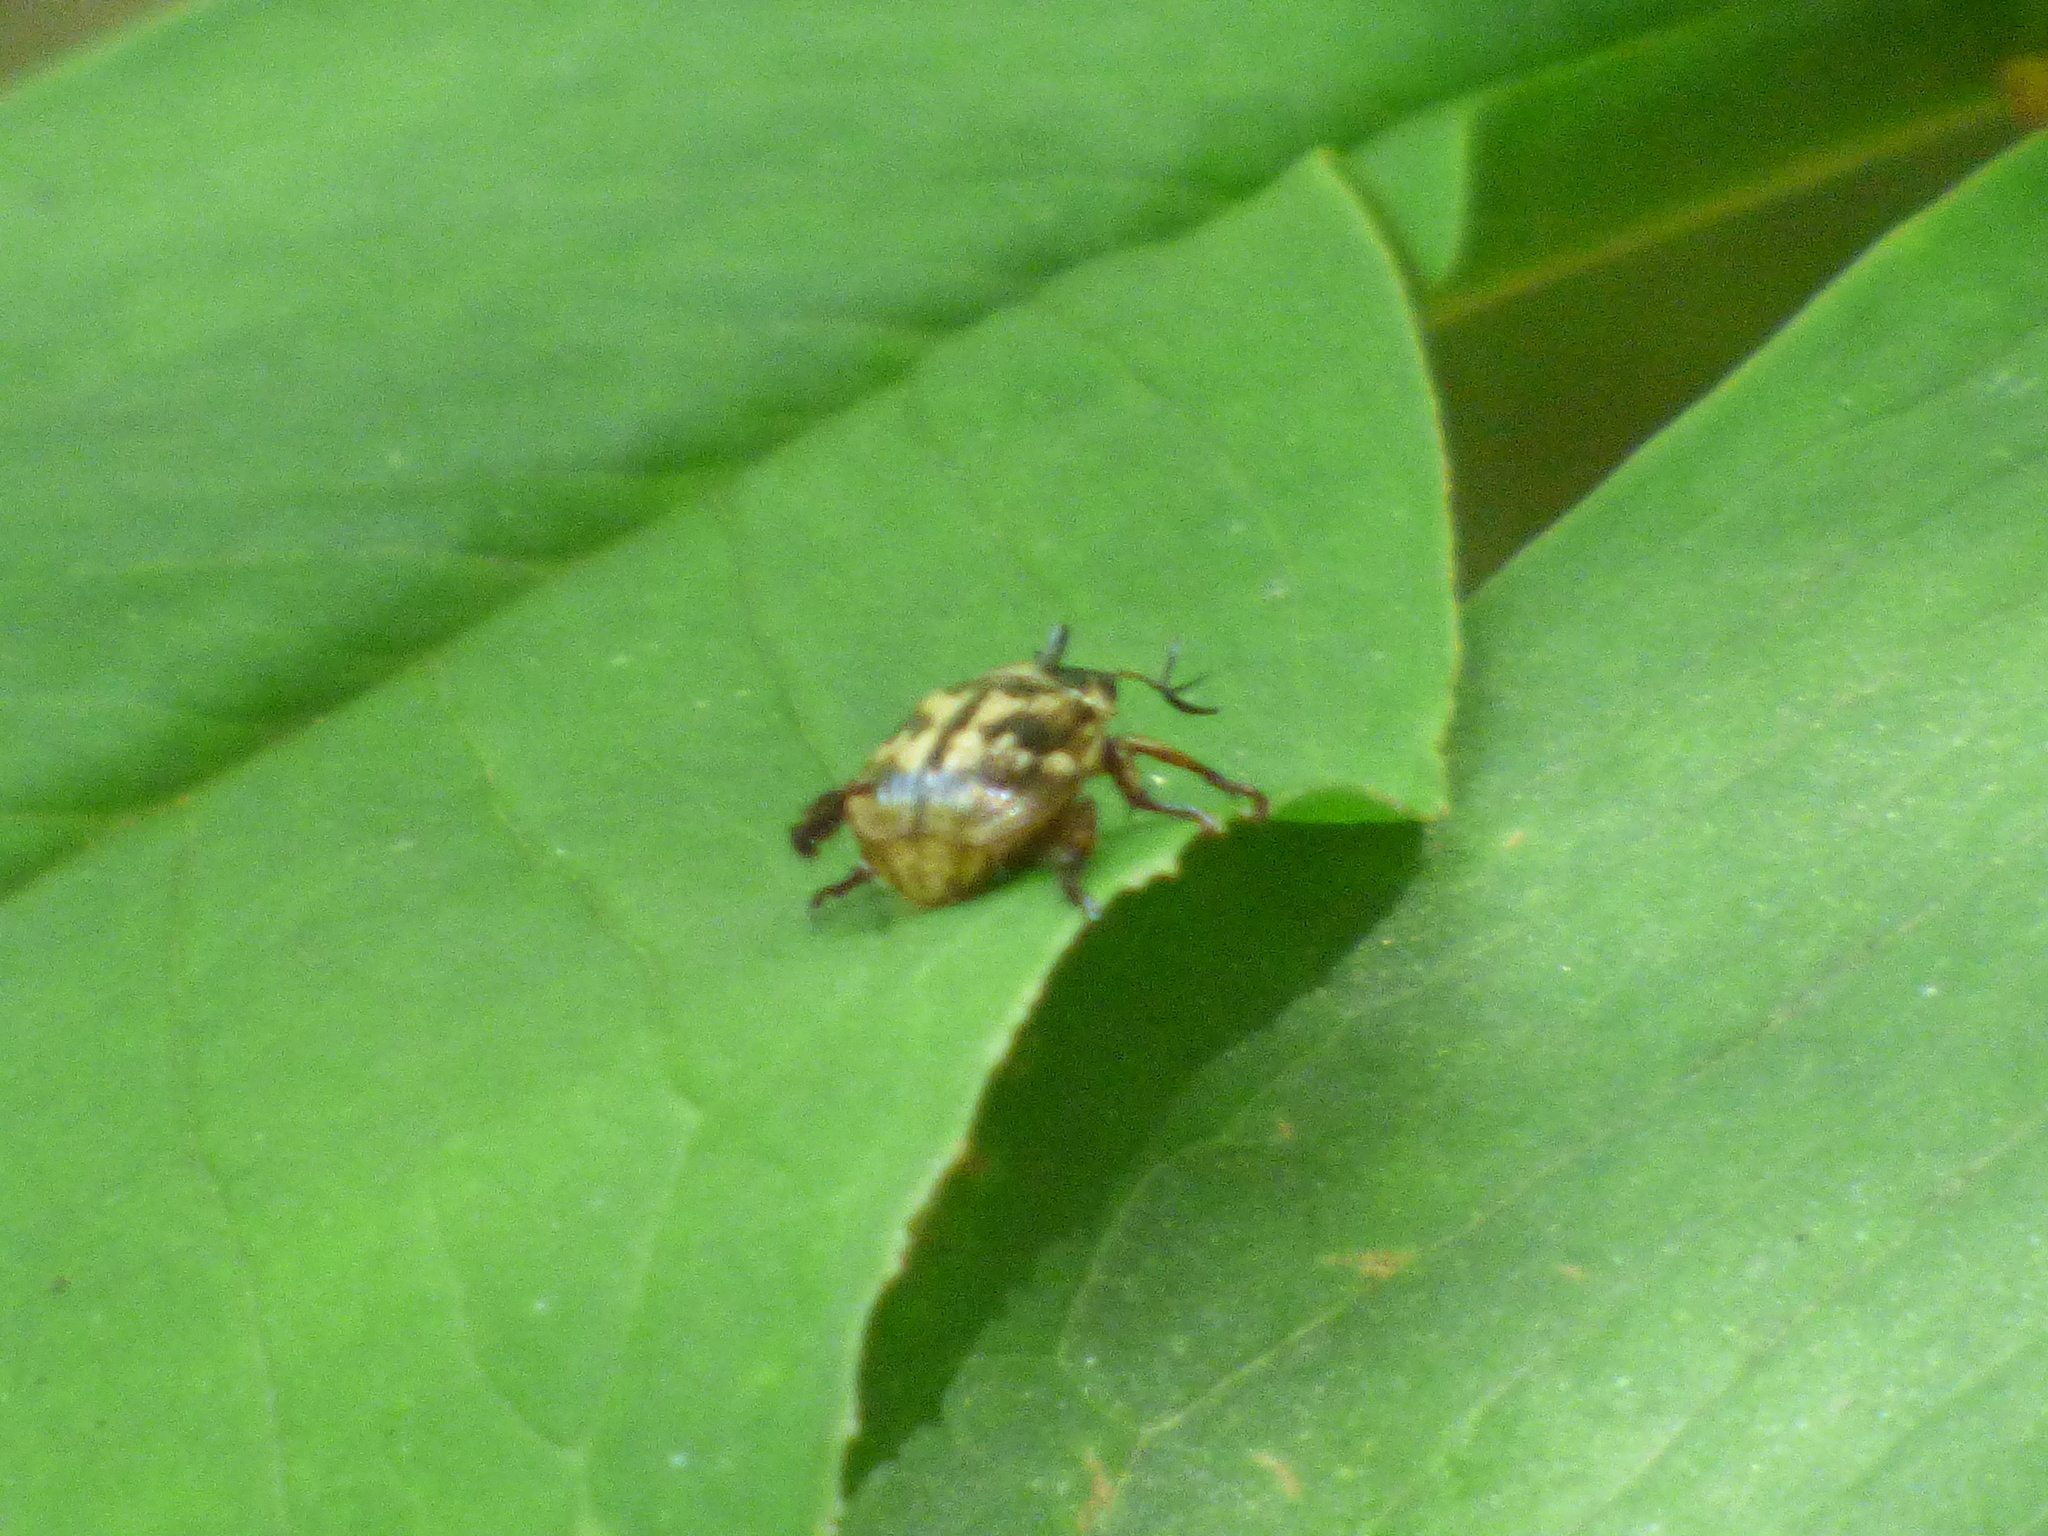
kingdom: Animalia
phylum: Arthropoda
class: Insecta
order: Coleoptera
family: Scarabaeidae
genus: Exomala
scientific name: Exomala orientalis
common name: Oriental beetle
